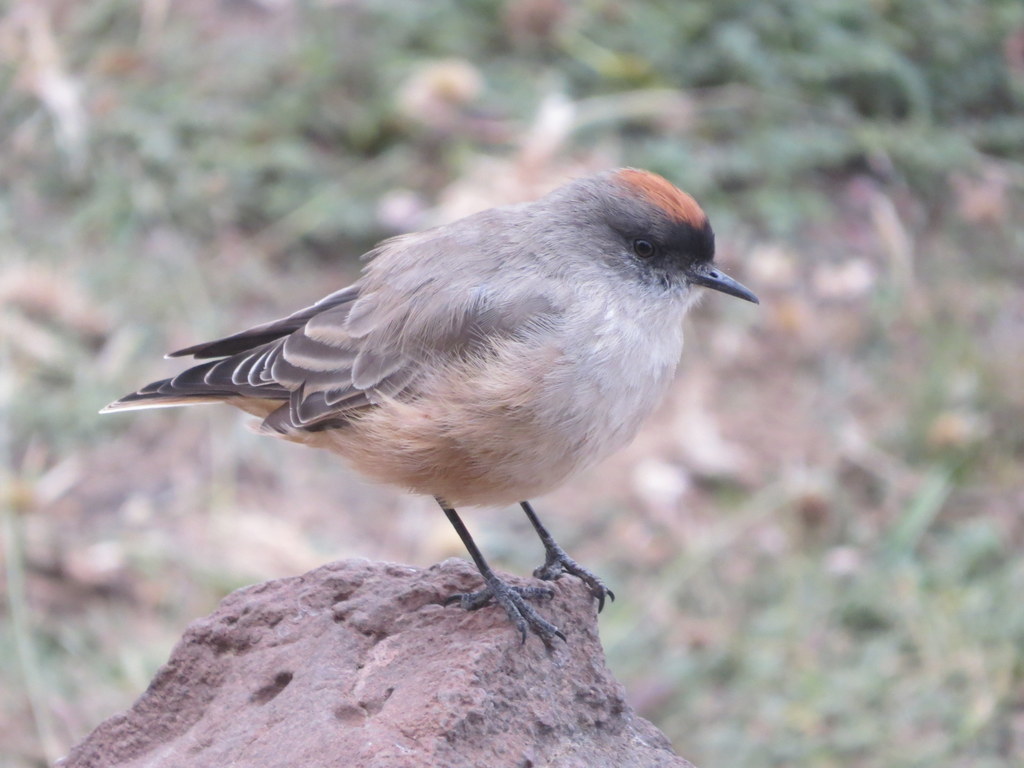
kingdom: Animalia
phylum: Chordata
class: Aves
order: Passeriformes
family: Tyrannidae
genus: Muscisaxicola
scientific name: Muscisaxicola capistratus
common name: Cinnamon-bellied ground tyrant
